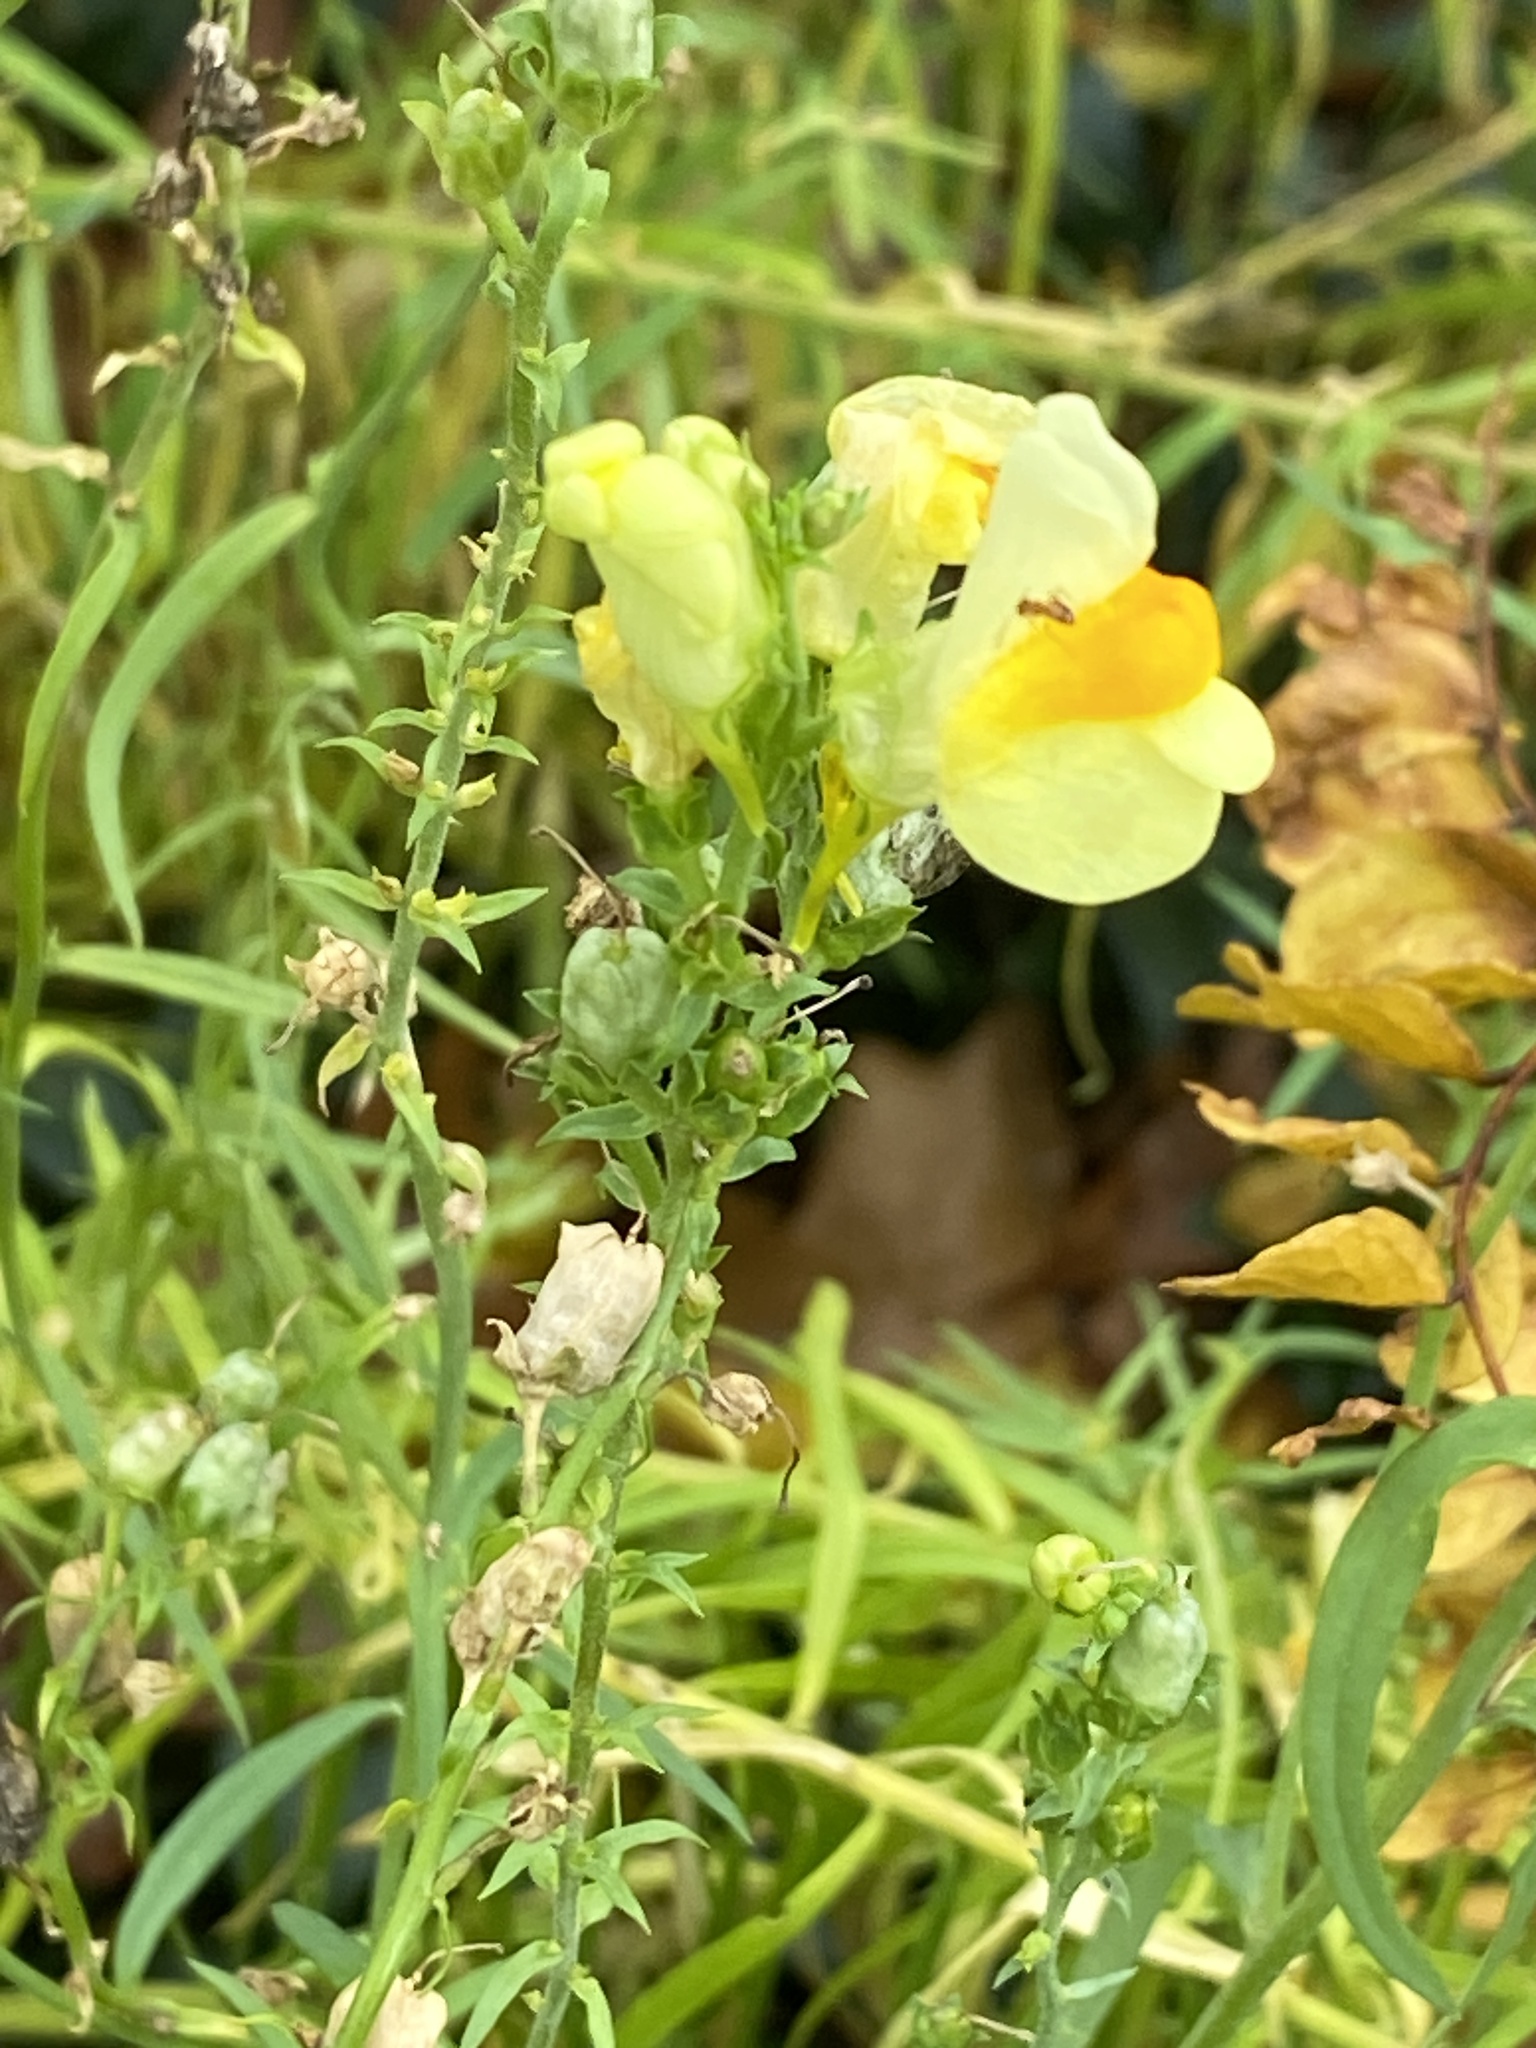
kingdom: Plantae
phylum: Tracheophyta
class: Magnoliopsida
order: Lamiales
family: Plantaginaceae
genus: Linaria
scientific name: Linaria vulgaris
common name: Butter and eggs
